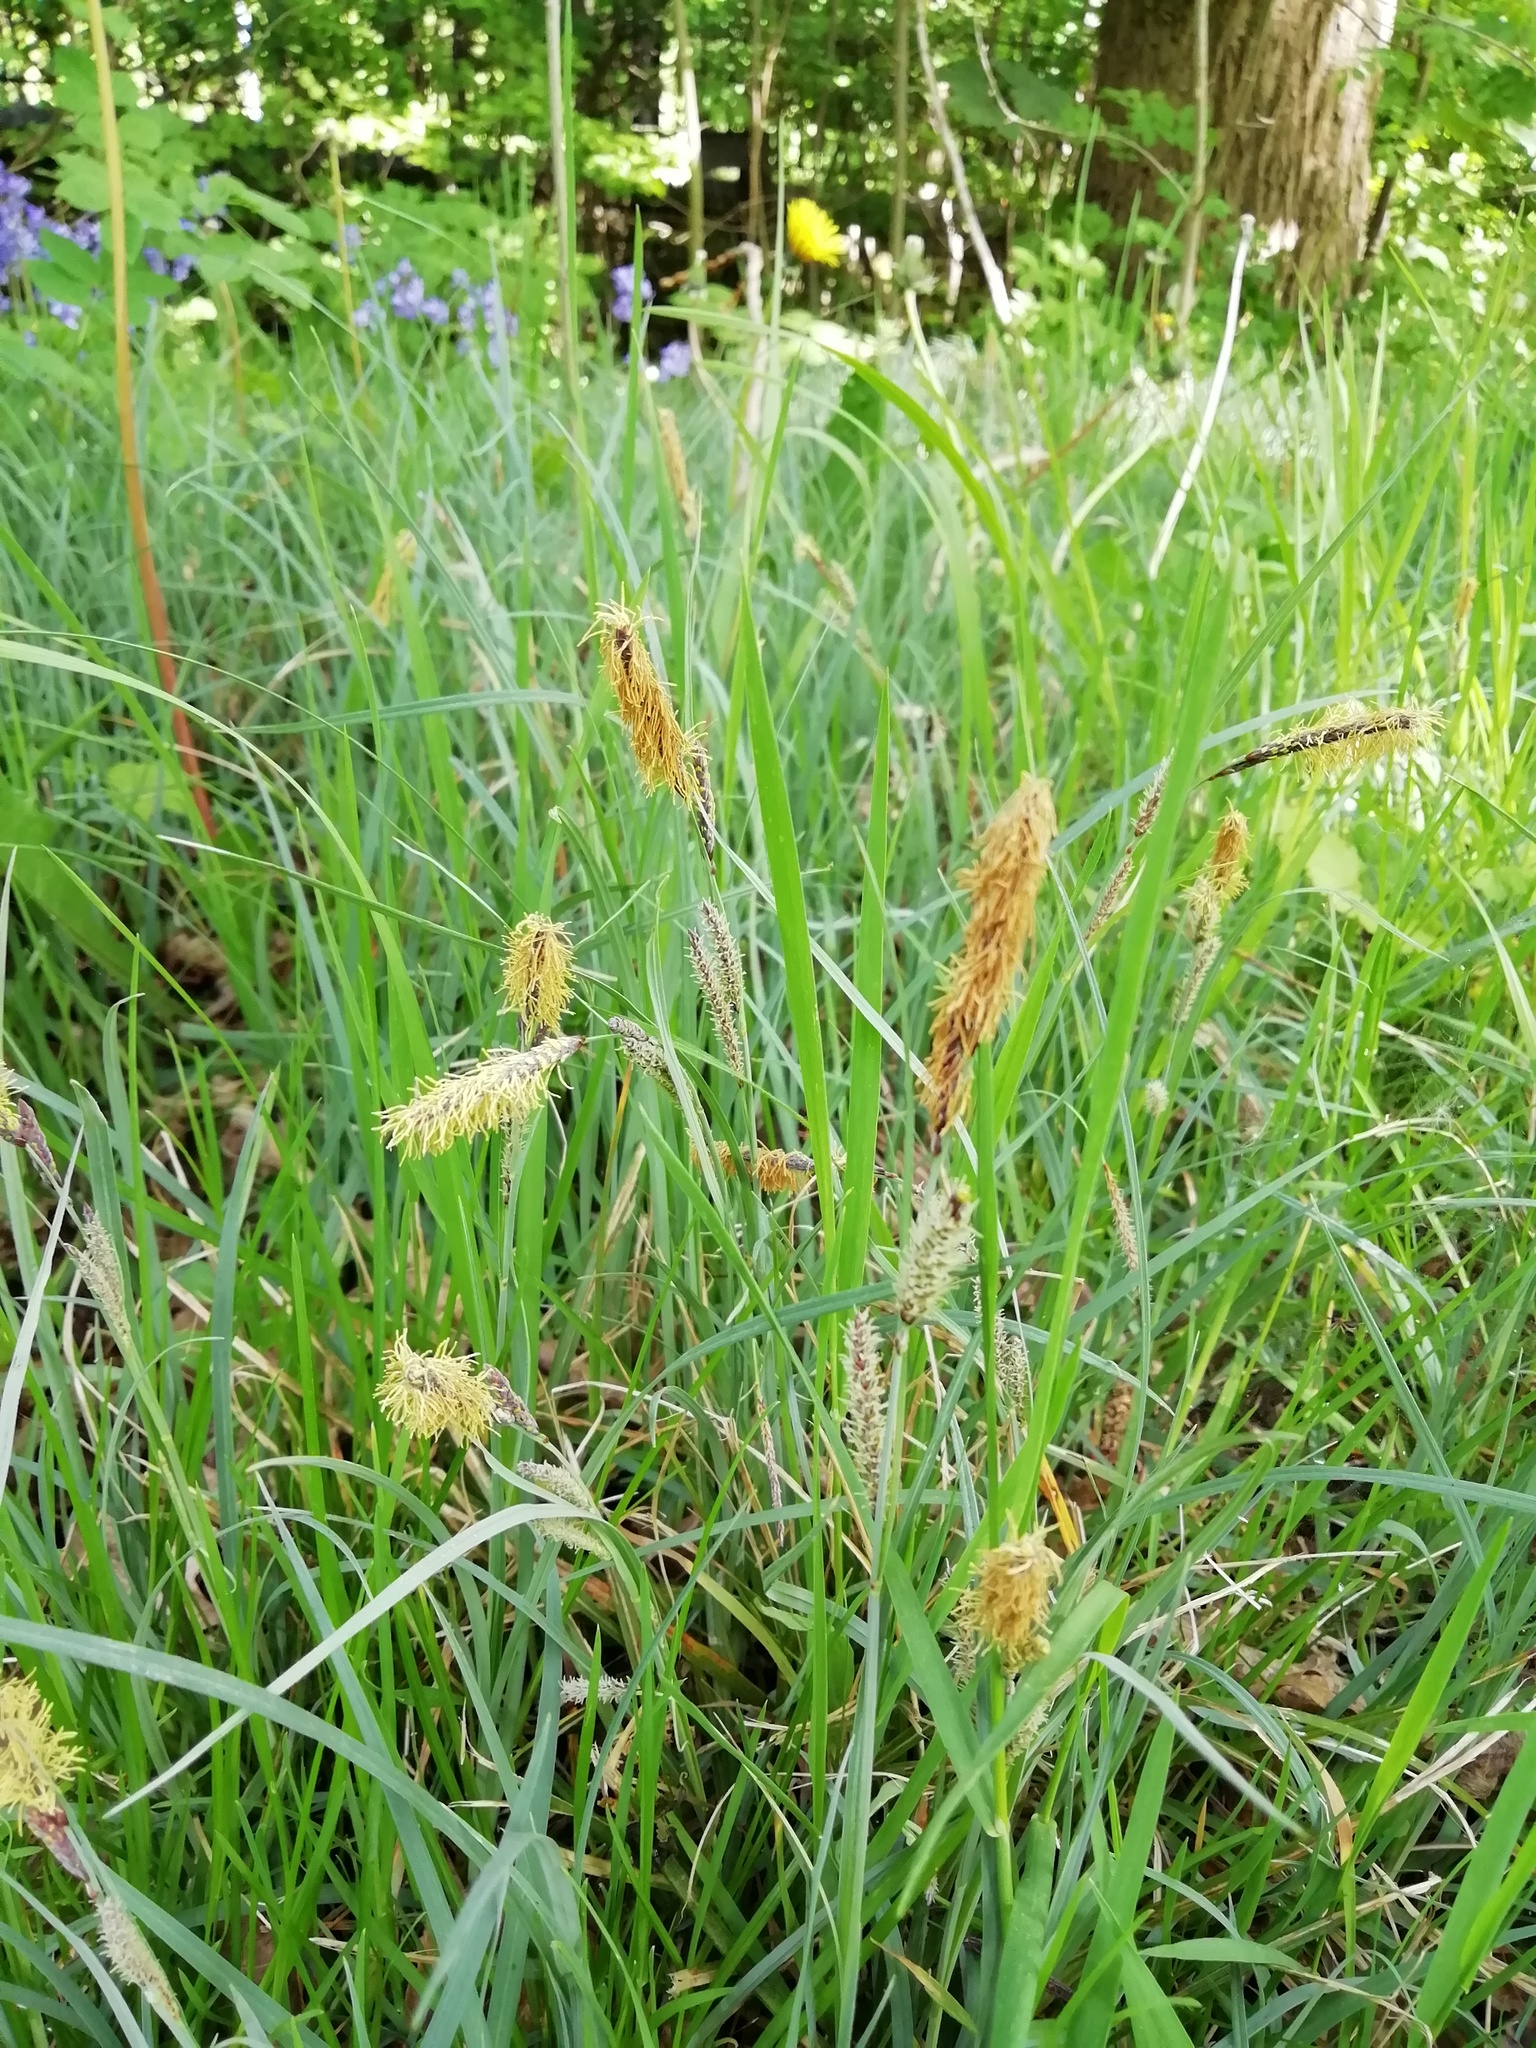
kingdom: Plantae
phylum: Tracheophyta
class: Liliopsida
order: Poales
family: Cyperaceae
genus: Carex
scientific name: Carex flacca
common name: Glaucous sedge
